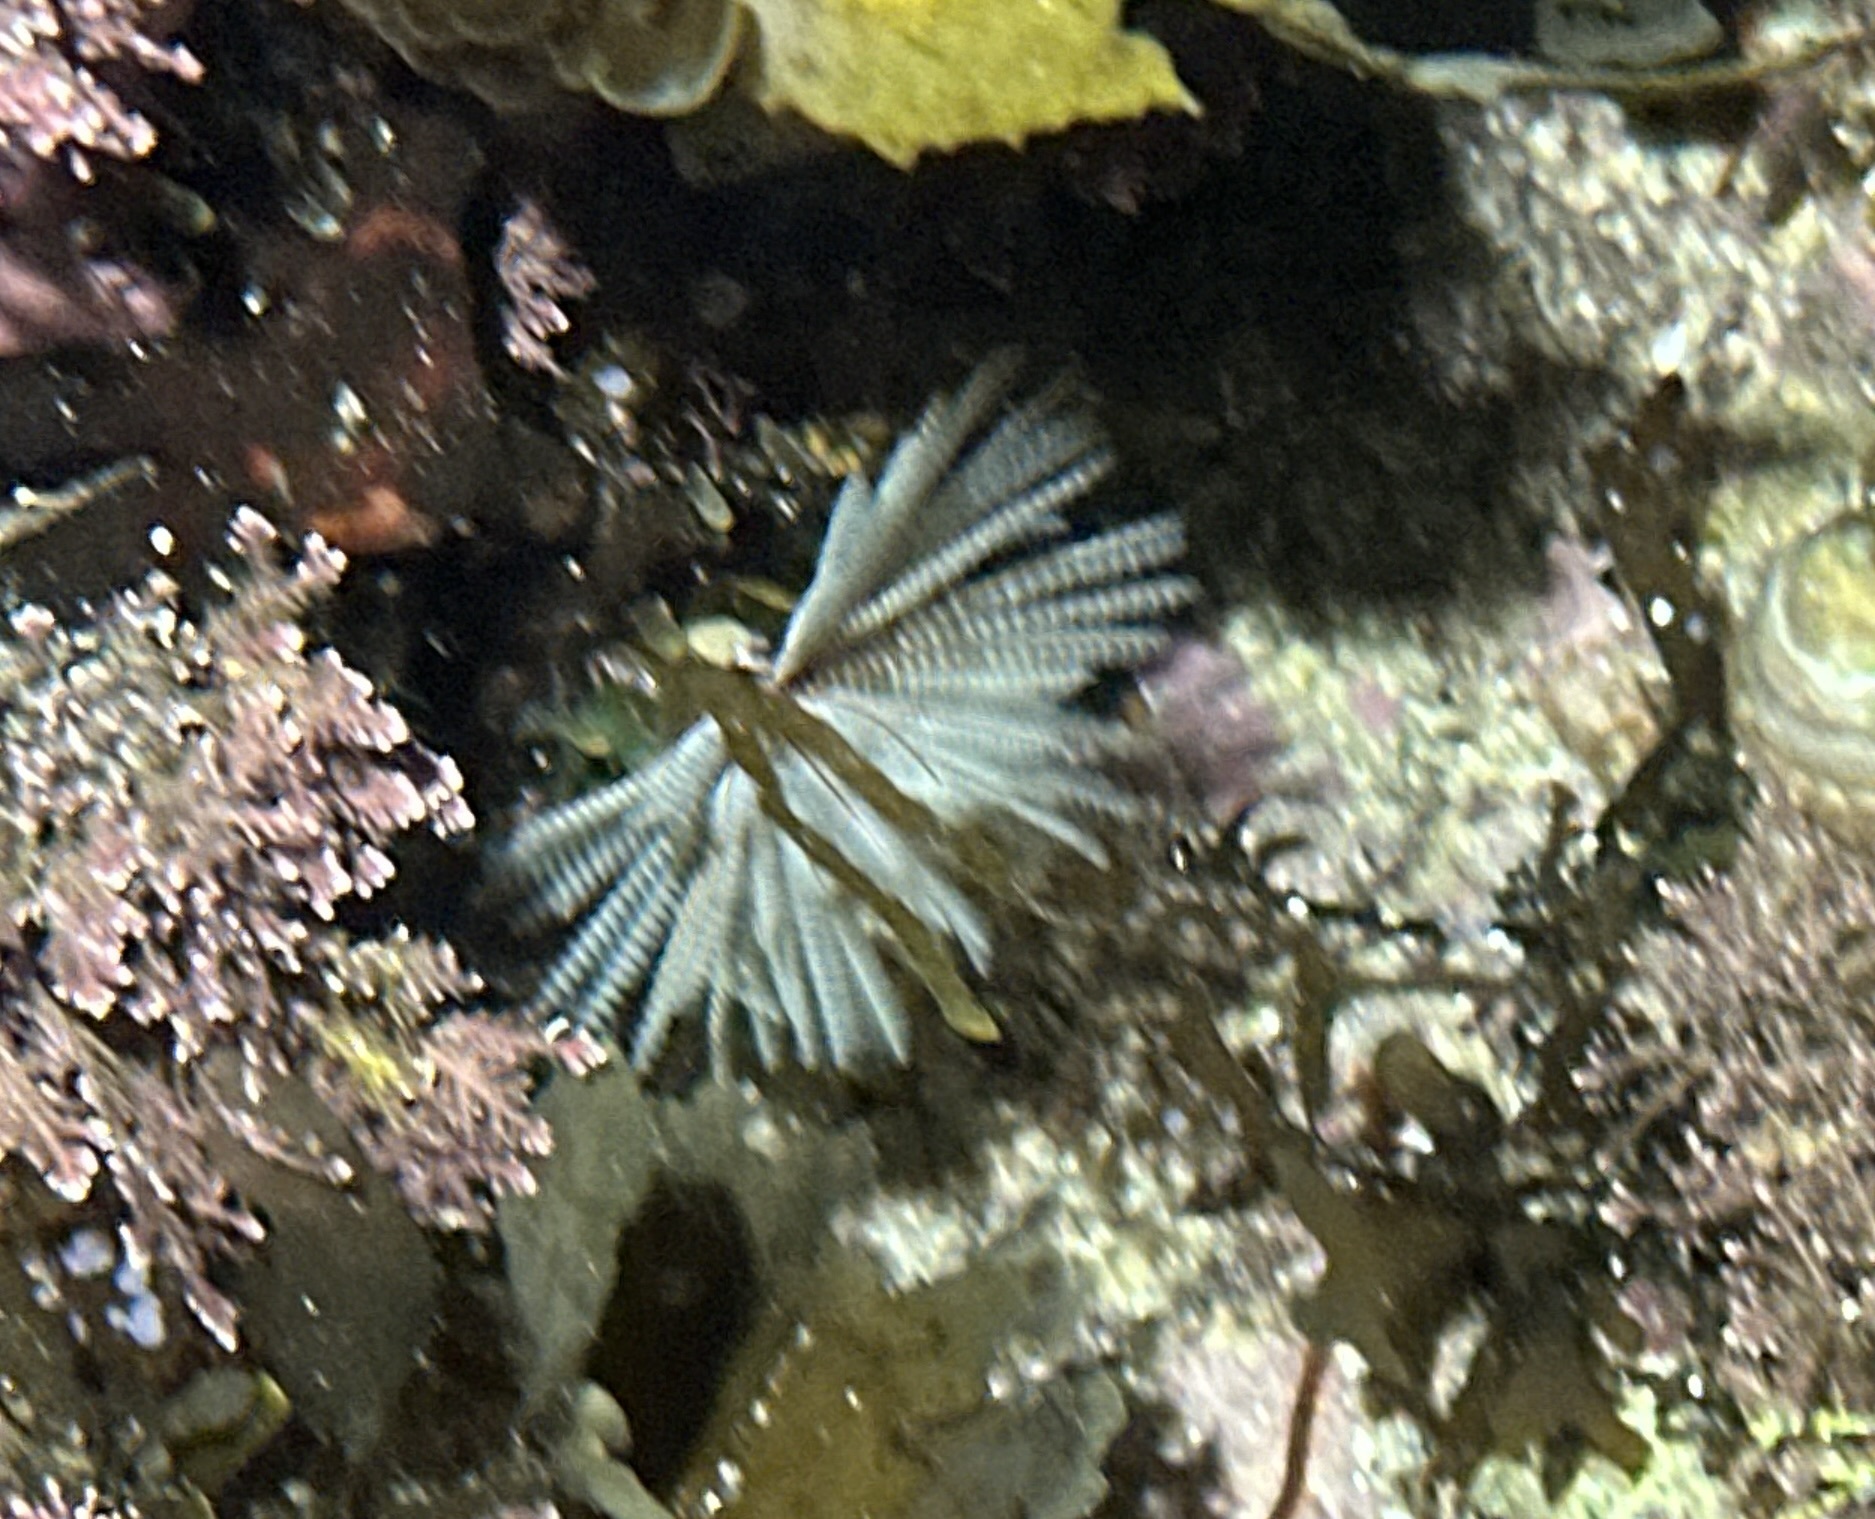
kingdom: Animalia
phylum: Annelida
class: Polychaeta
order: Sabellida
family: Sabellidae
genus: Sabellastarte
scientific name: Sabellastarte australiensis
